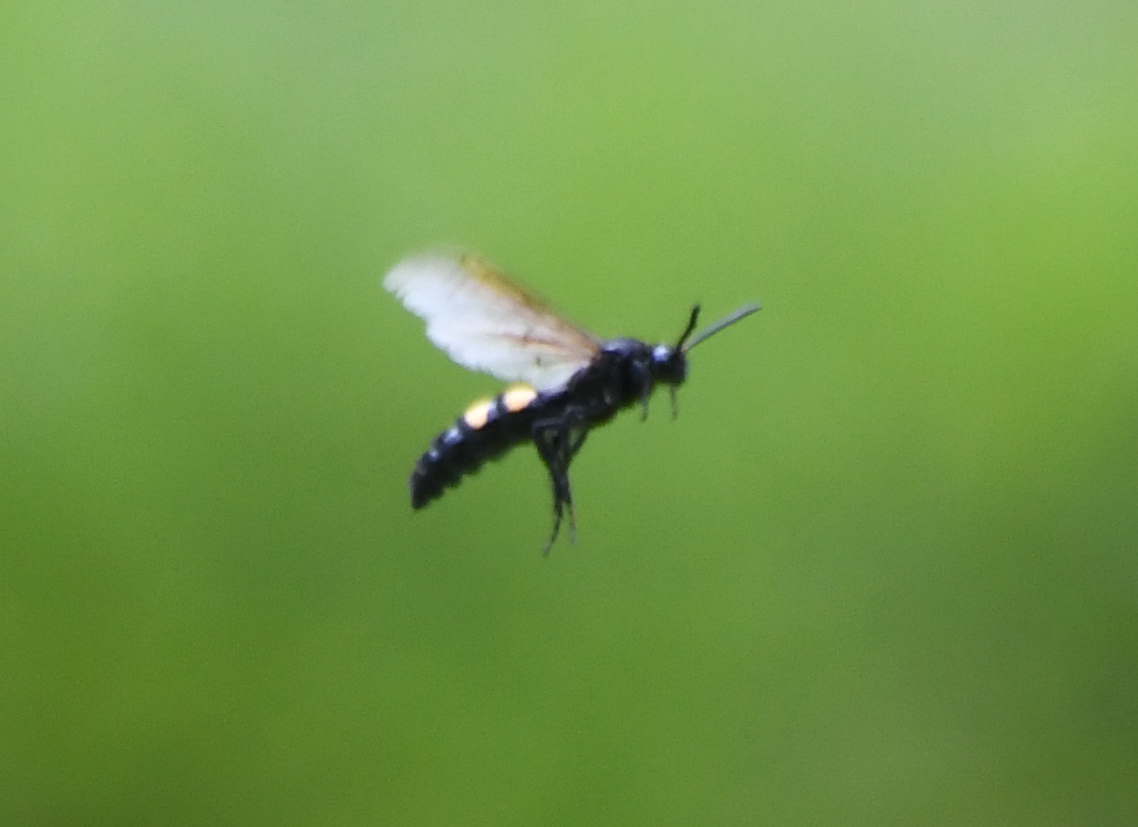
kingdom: Animalia
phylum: Arthropoda
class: Insecta
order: Hymenoptera
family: Scoliidae
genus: Pygodasis
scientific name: Pygodasis ephippium
